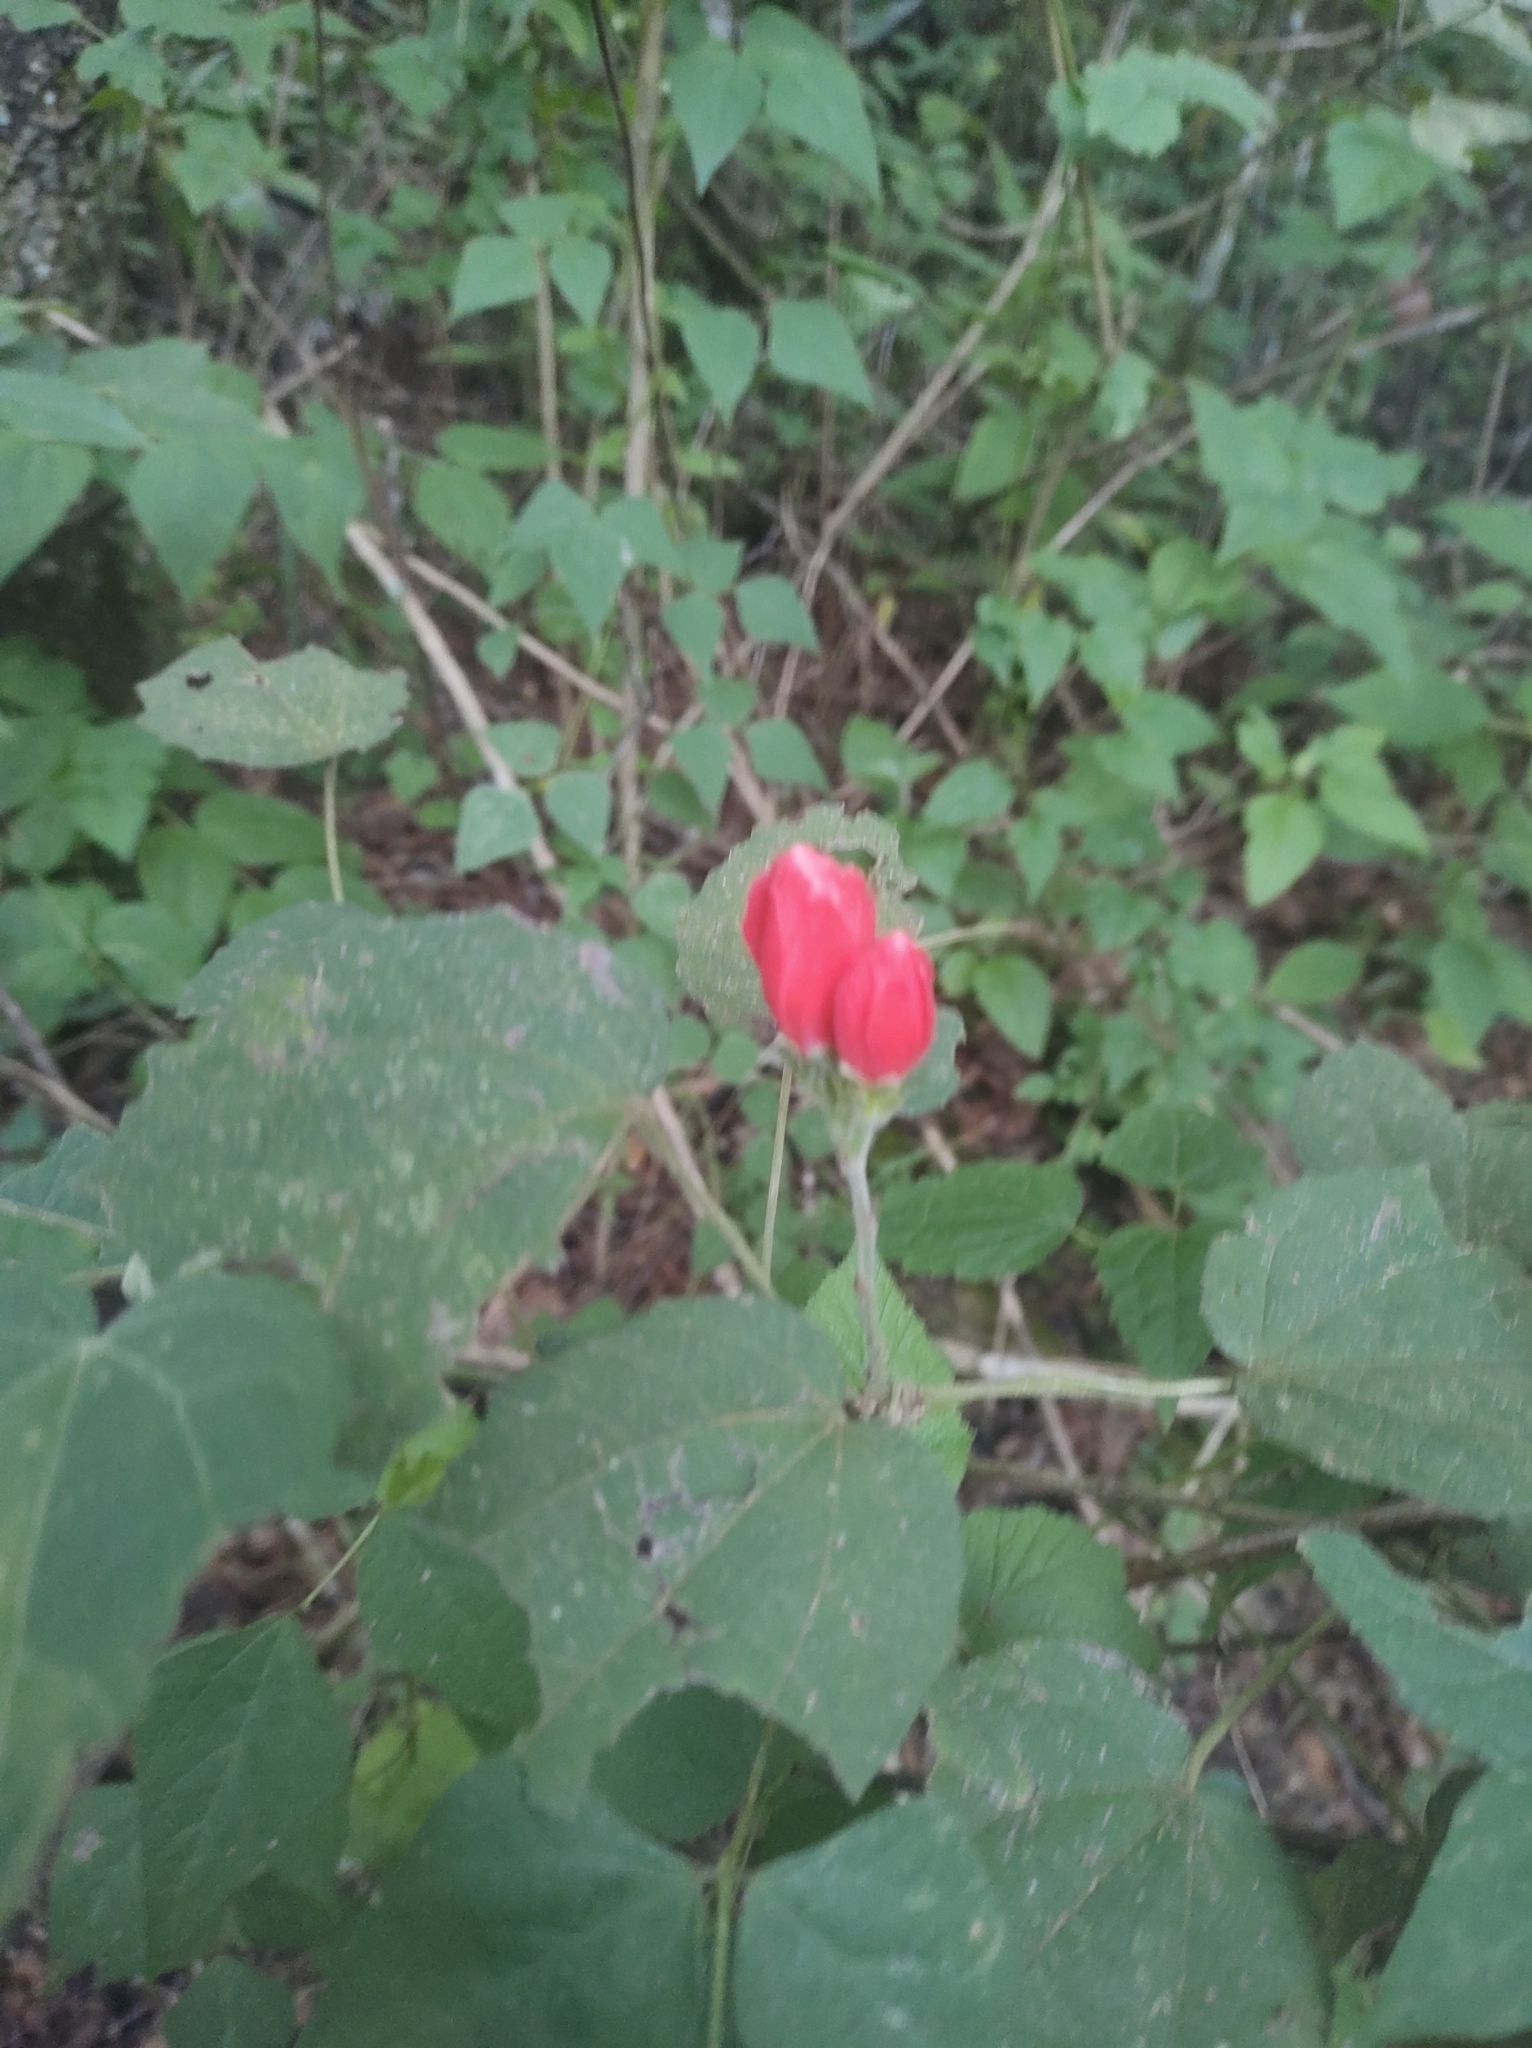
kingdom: Plantae
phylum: Tracheophyta
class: Magnoliopsida
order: Malvales
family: Malvaceae
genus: Malvaviscus
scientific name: Malvaviscus arboreus
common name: Wax mallow
